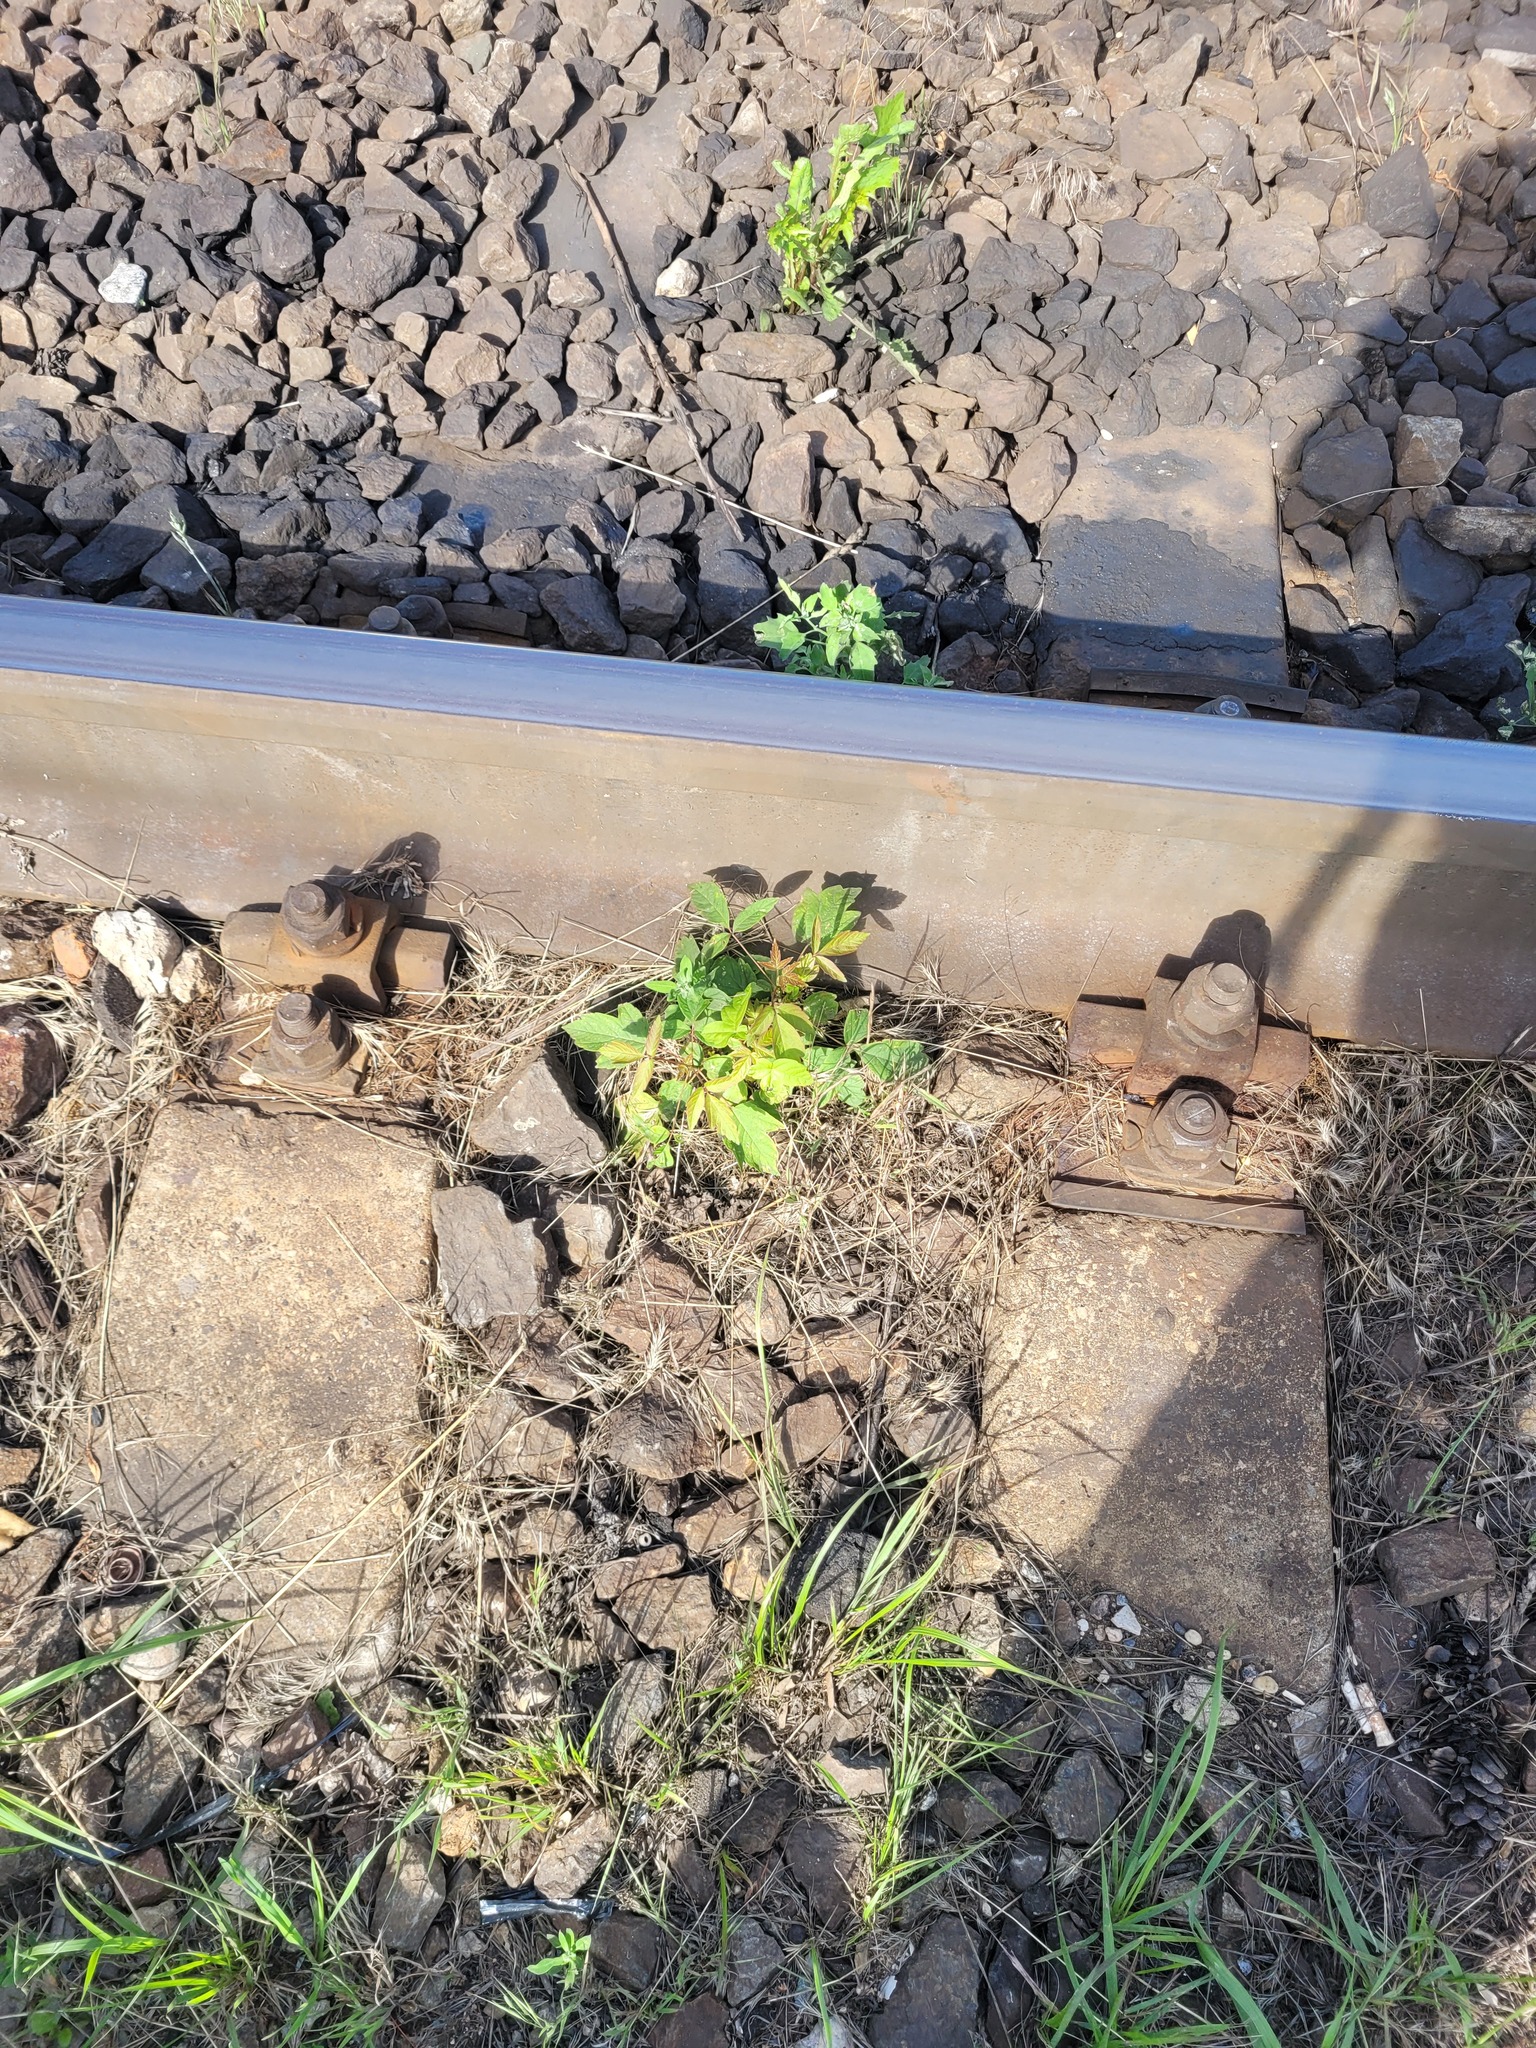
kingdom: Plantae
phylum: Tracheophyta
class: Magnoliopsida
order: Sapindales
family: Sapindaceae
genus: Acer
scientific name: Acer negundo
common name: Ashleaf maple
